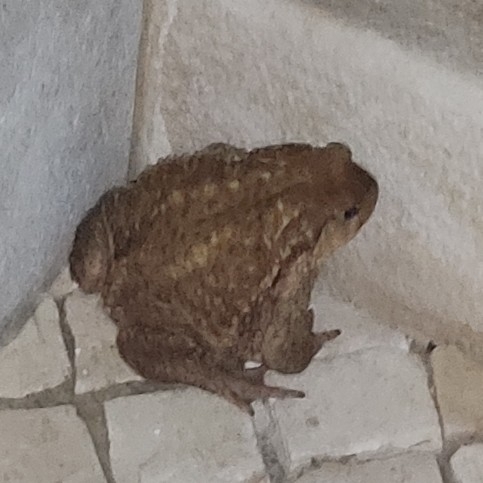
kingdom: Animalia
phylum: Chordata
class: Amphibia
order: Anura
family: Bufonidae
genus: Bufo
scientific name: Bufo spinosus
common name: Western common toad
